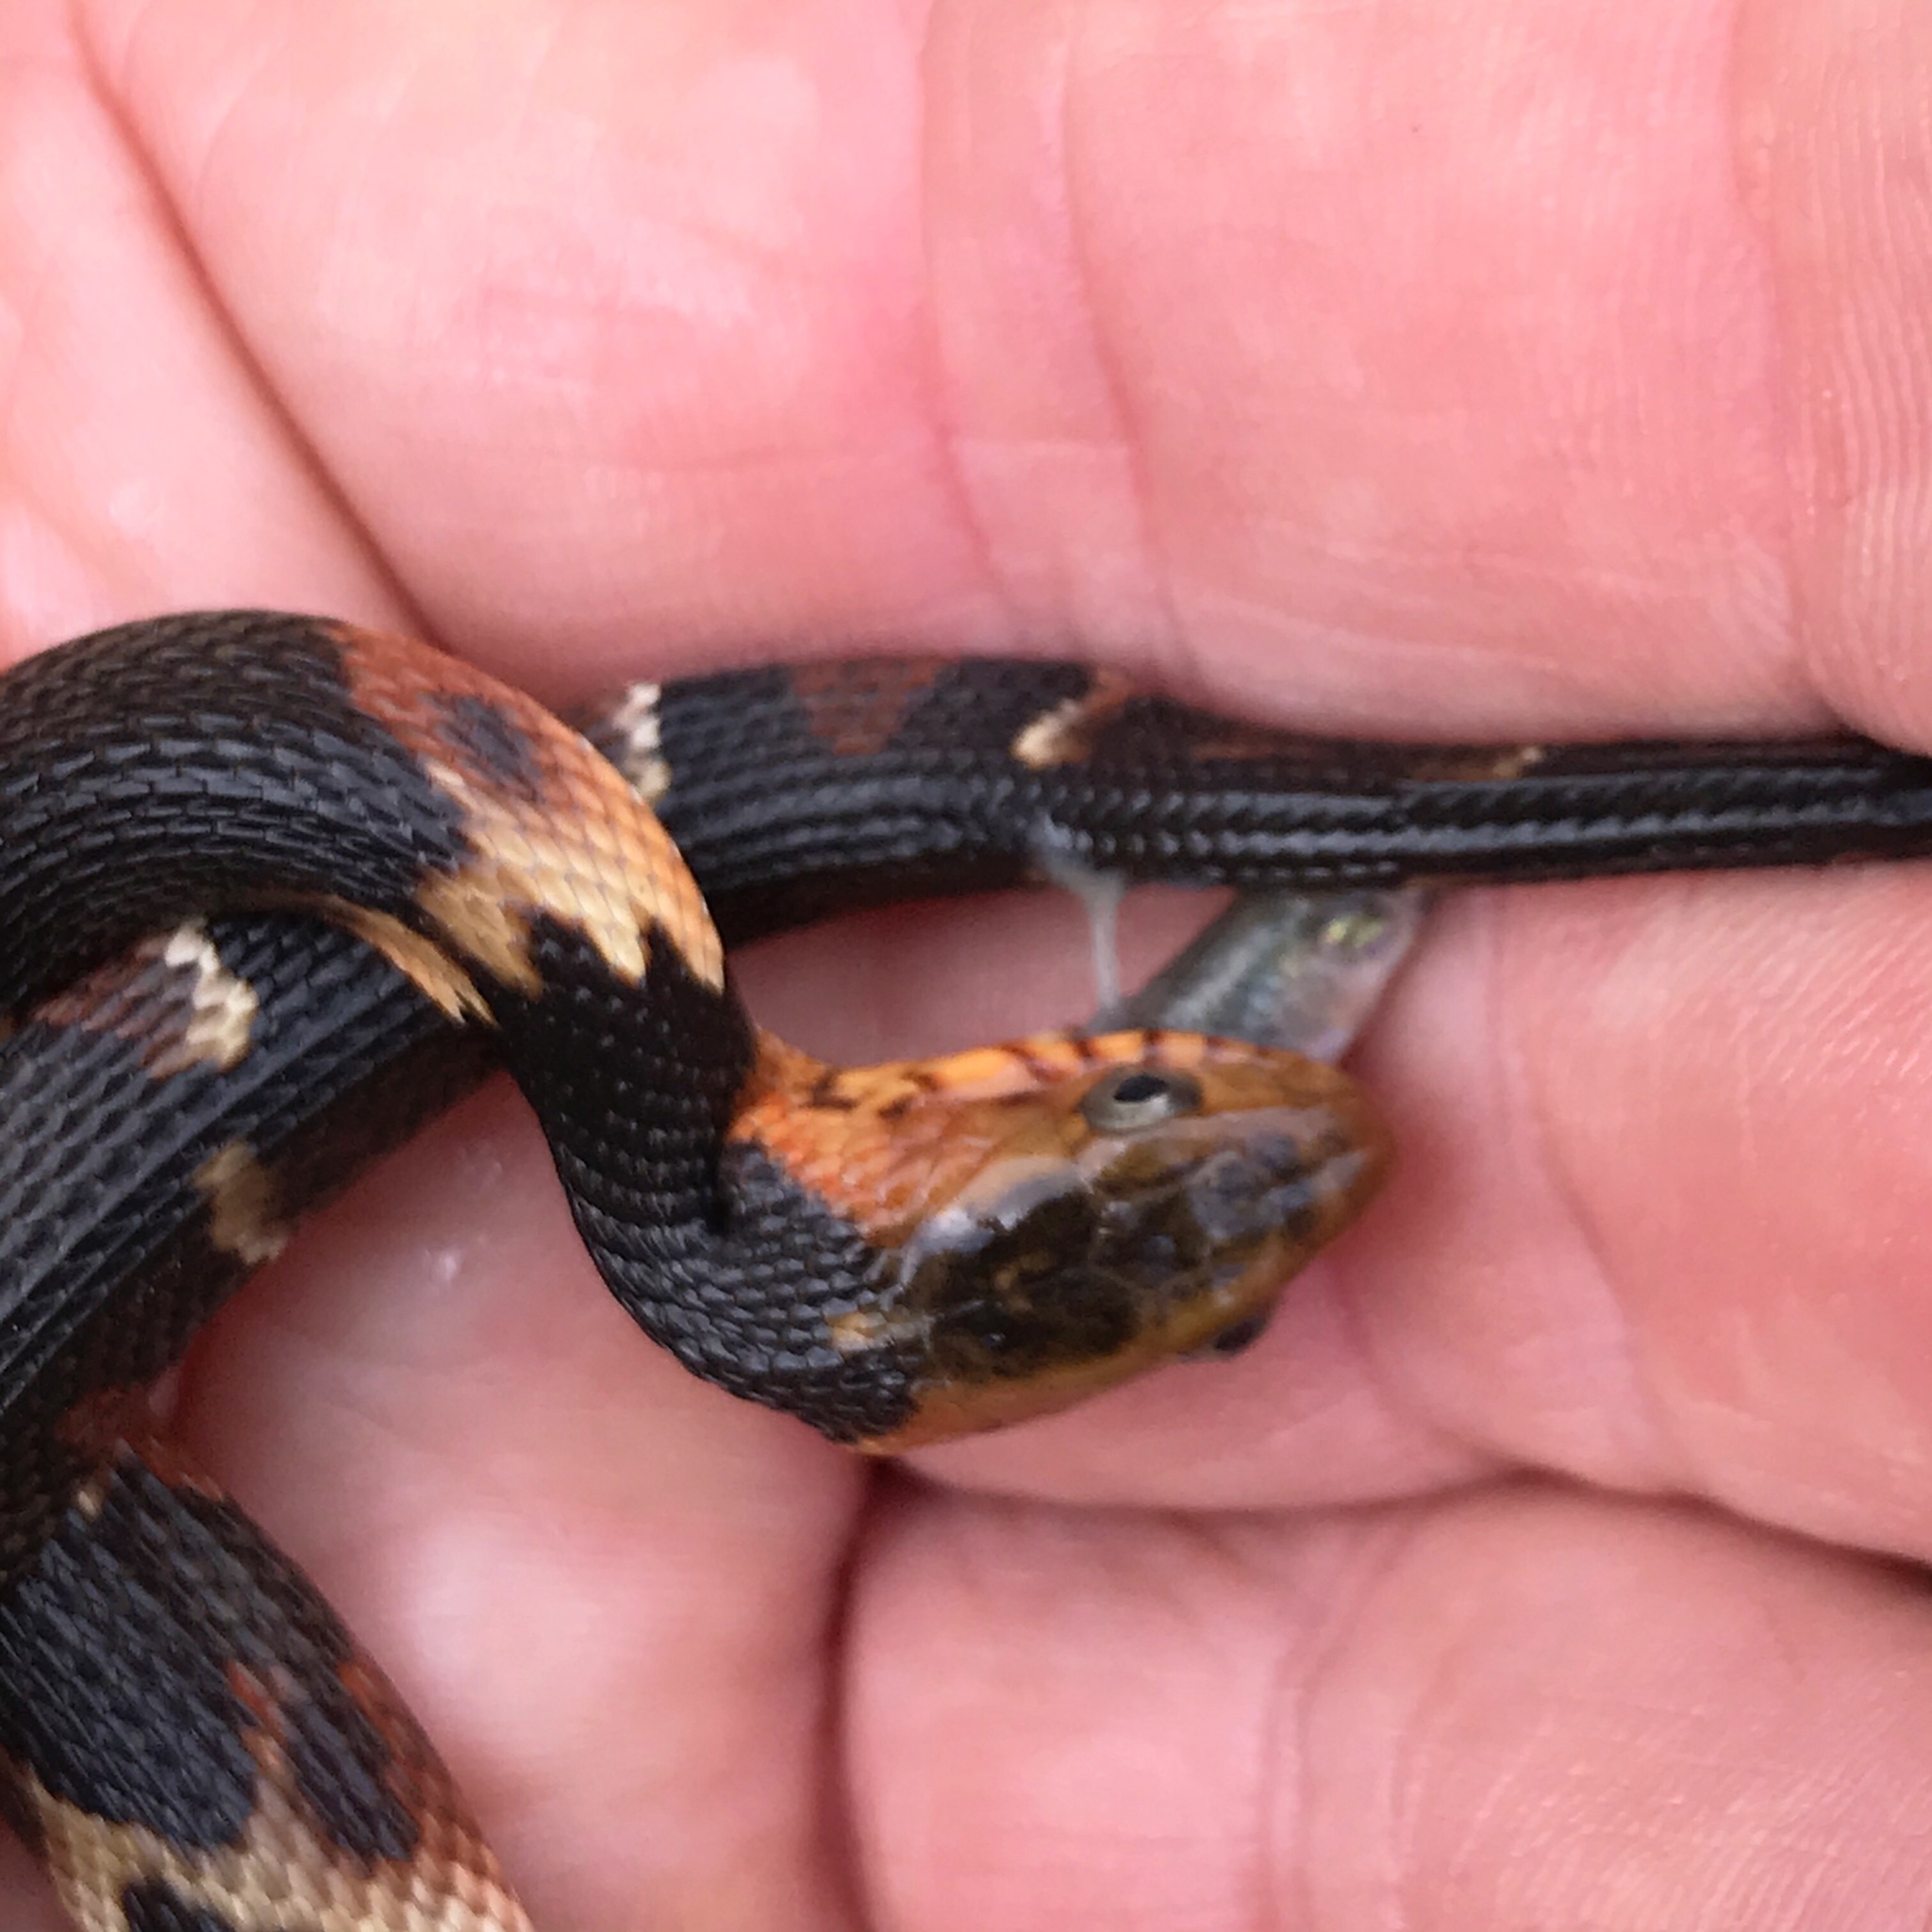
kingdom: Animalia
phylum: Chordata
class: Squamata
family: Colubridae
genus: Nerodia
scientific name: Nerodia fasciata
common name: Southern water snake
